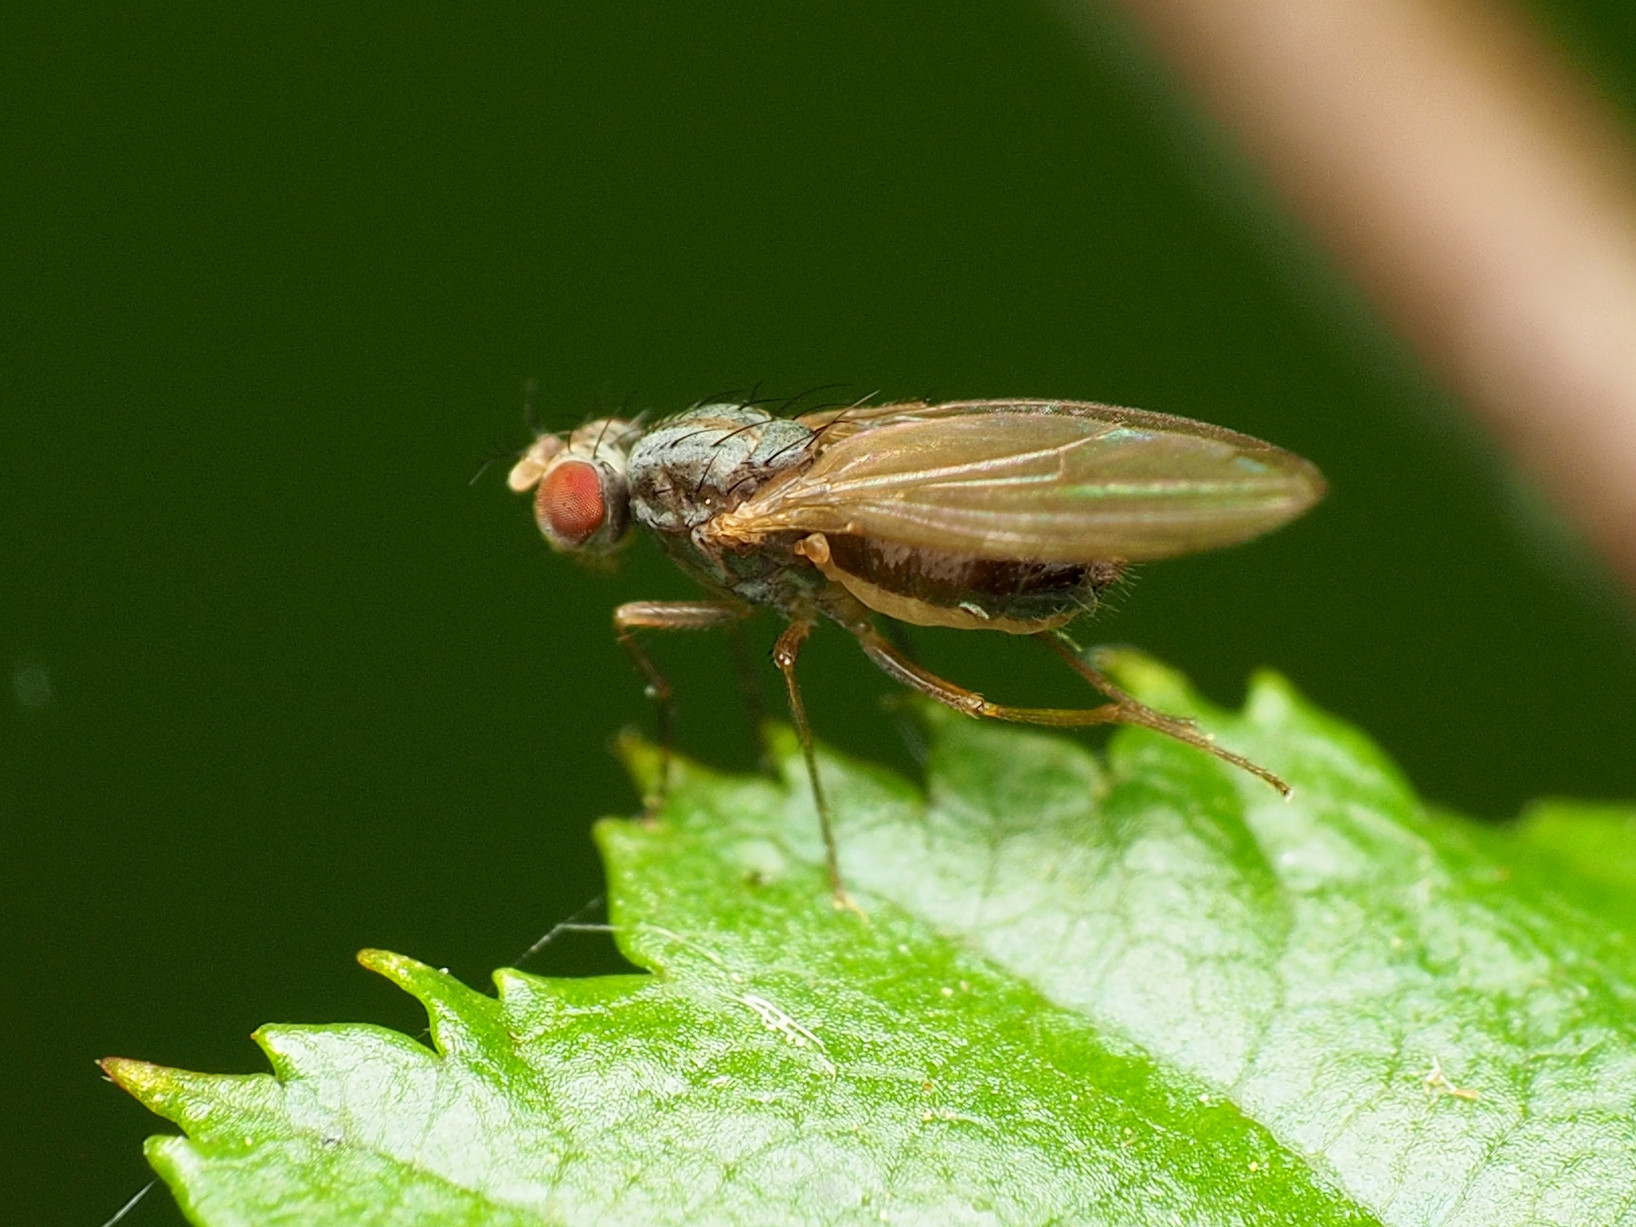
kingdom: Animalia
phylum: Arthropoda
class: Insecta
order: Diptera
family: Drosophilidae
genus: Scaptomyza
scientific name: Scaptomyza pallida
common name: Pomace fly
